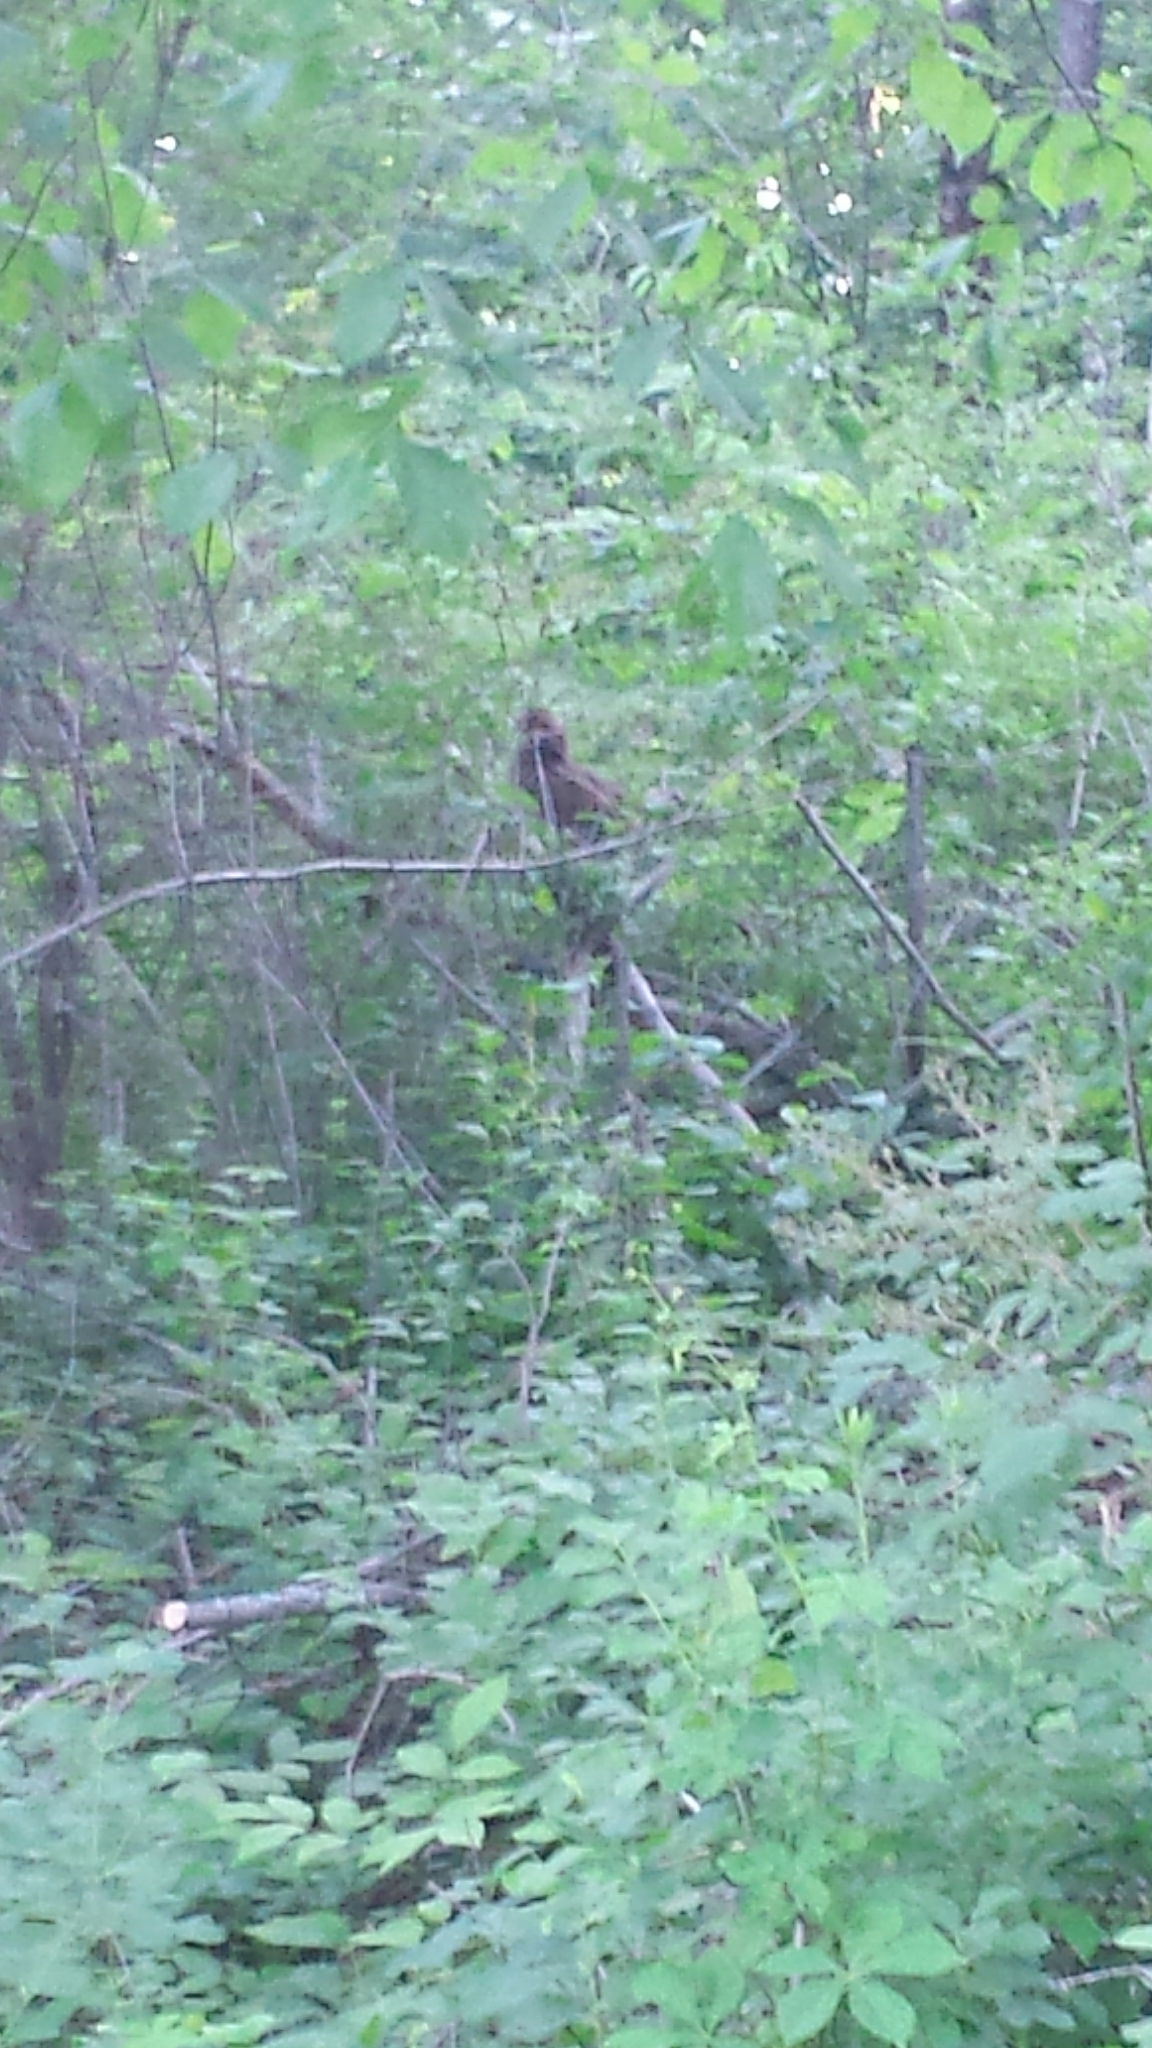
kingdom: Animalia
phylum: Chordata
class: Aves
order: Galliformes
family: Phasianidae
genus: Bonasa
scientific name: Bonasa umbellus
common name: Ruffed grouse
